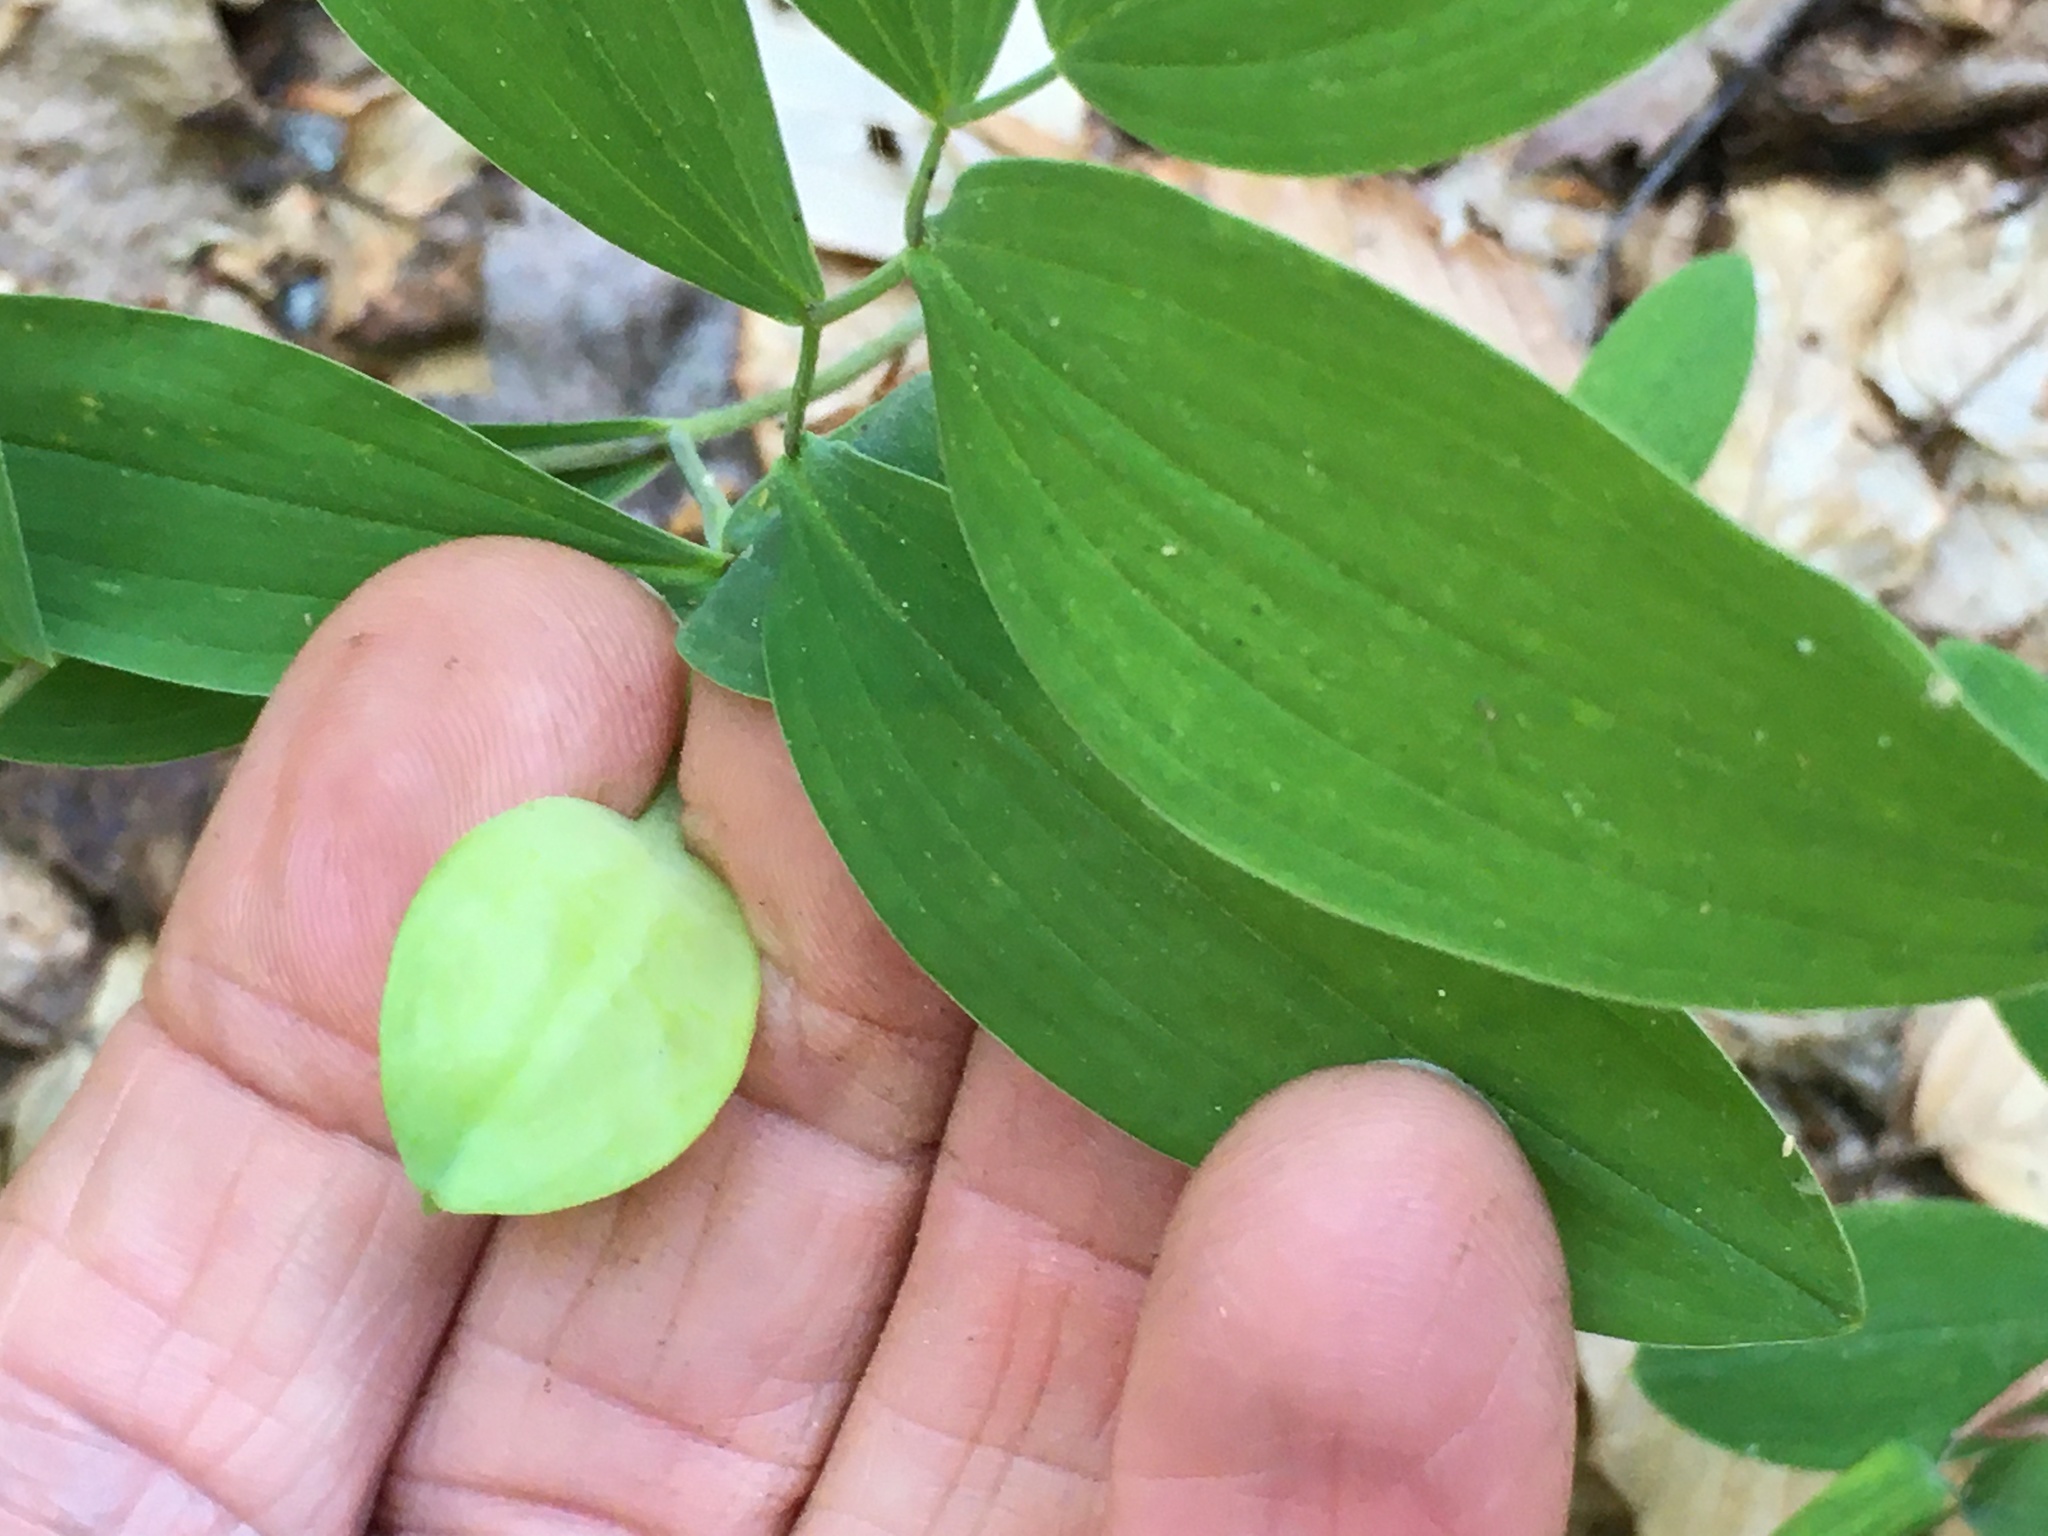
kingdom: Plantae
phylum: Tracheophyta
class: Liliopsida
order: Liliales
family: Colchicaceae
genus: Uvularia
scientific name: Uvularia sessilifolia
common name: Straw-lily
